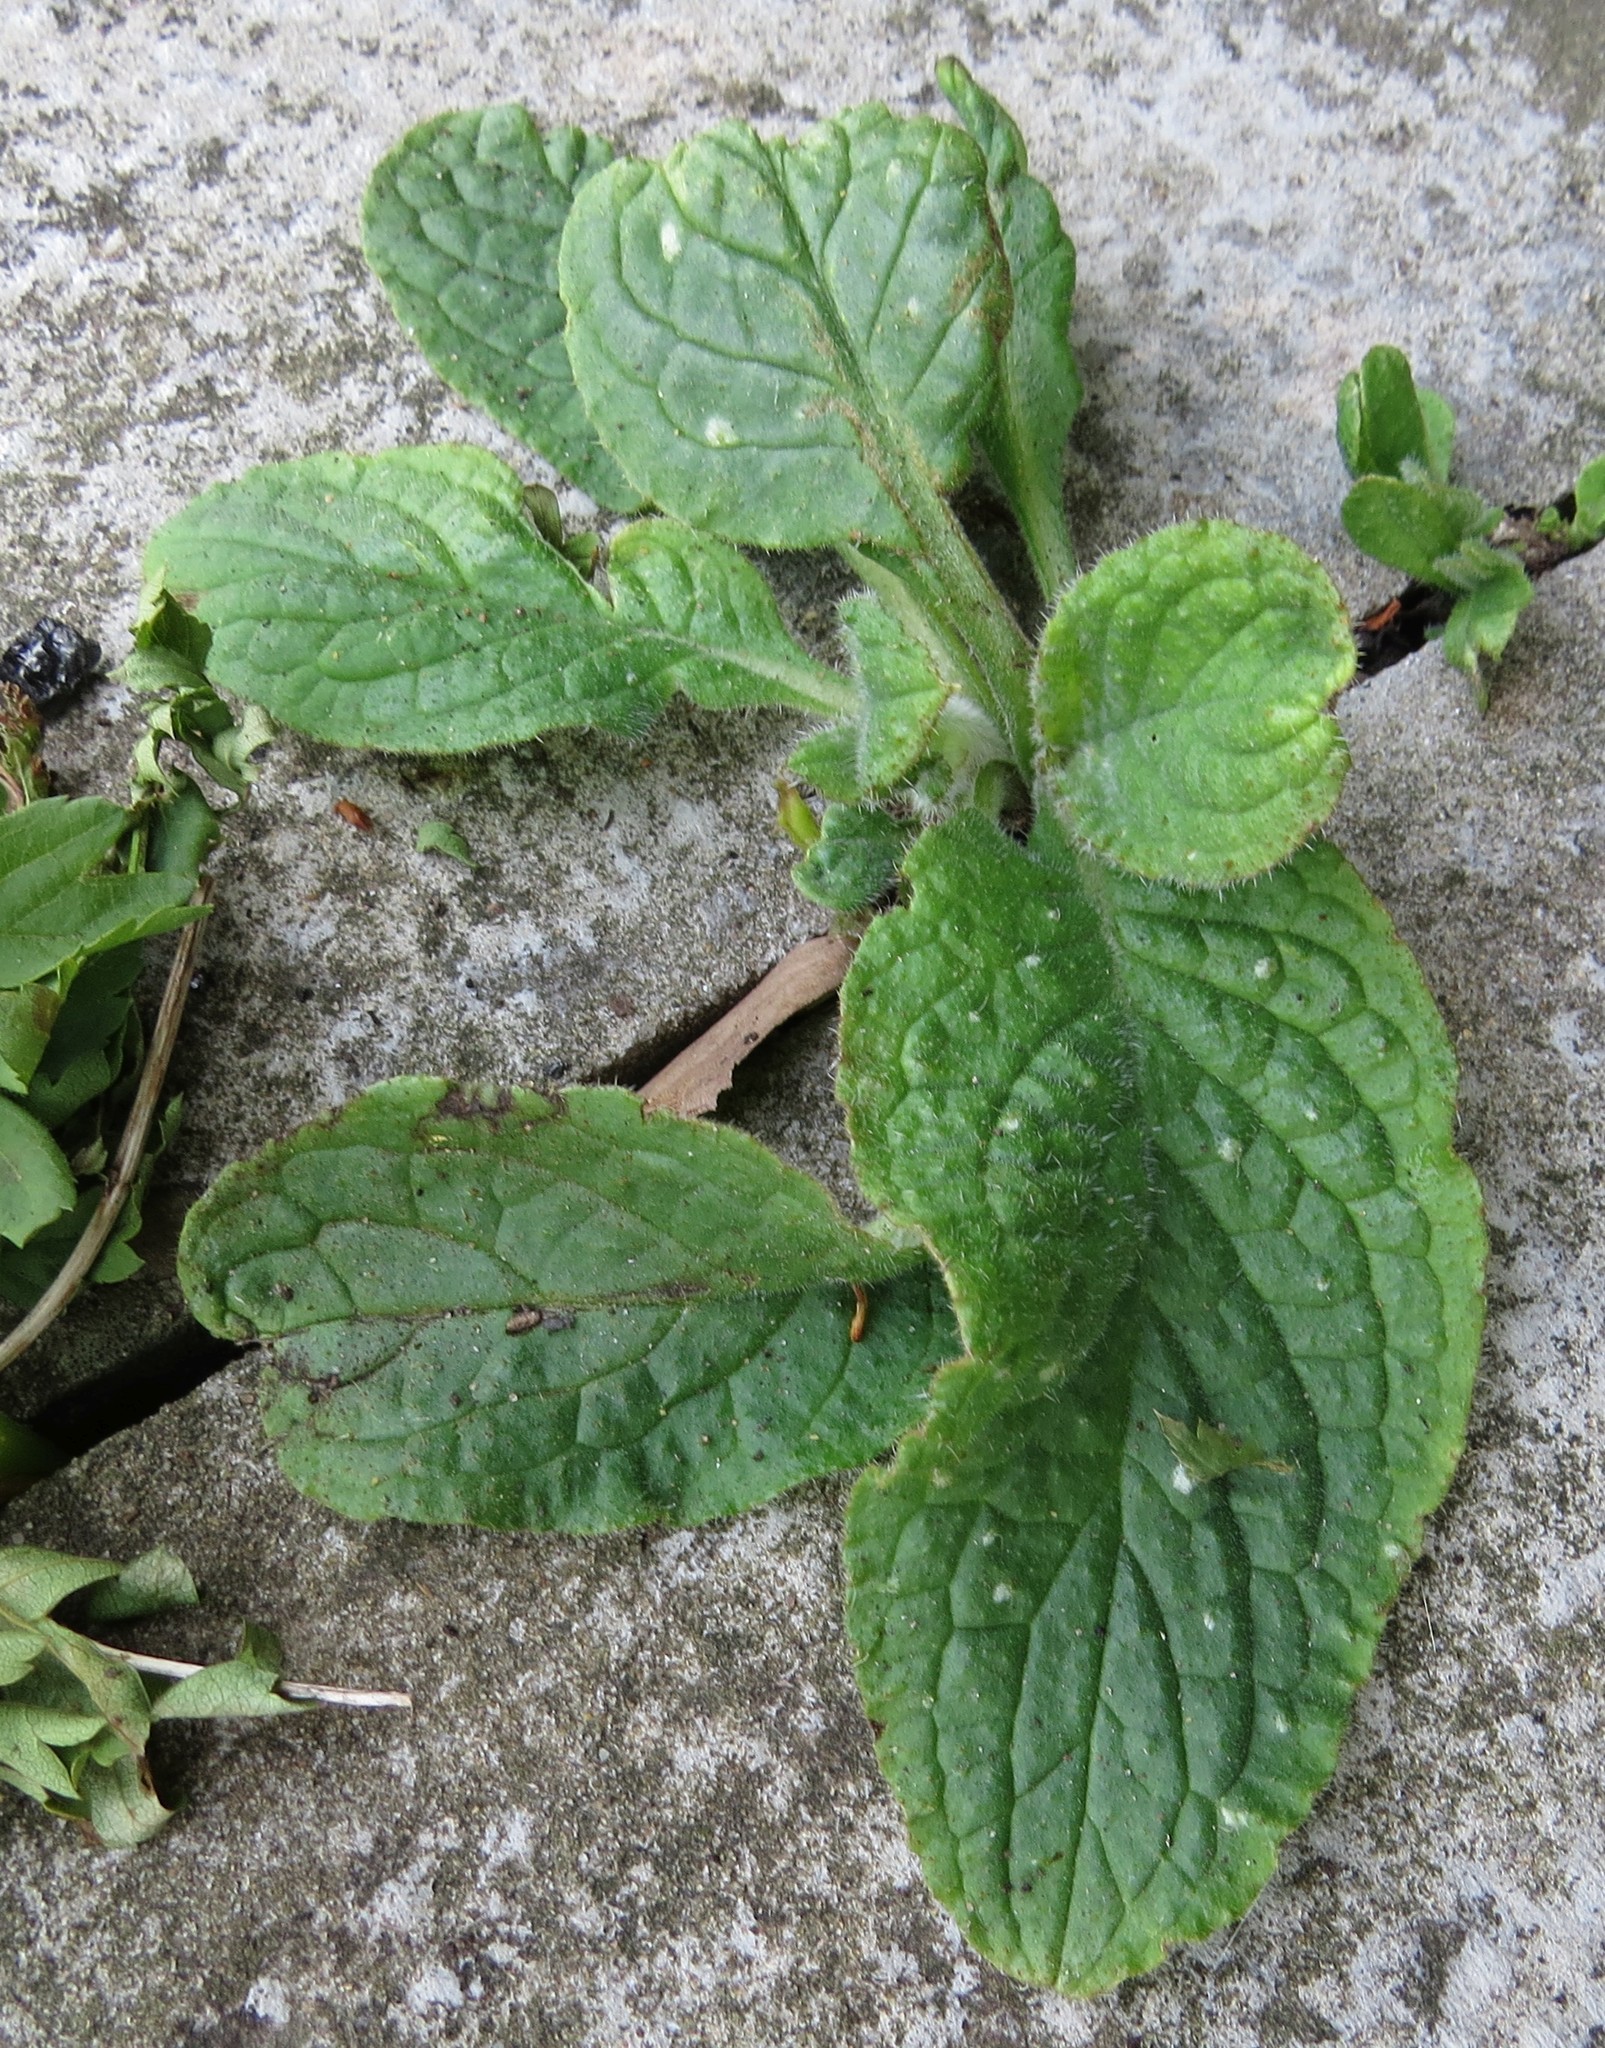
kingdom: Plantae
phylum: Tracheophyta
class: Magnoliopsida
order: Boraginales
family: Boraginaceae
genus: Pentaglottis
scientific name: Pentaglottis sempervirens
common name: Green alkanet
